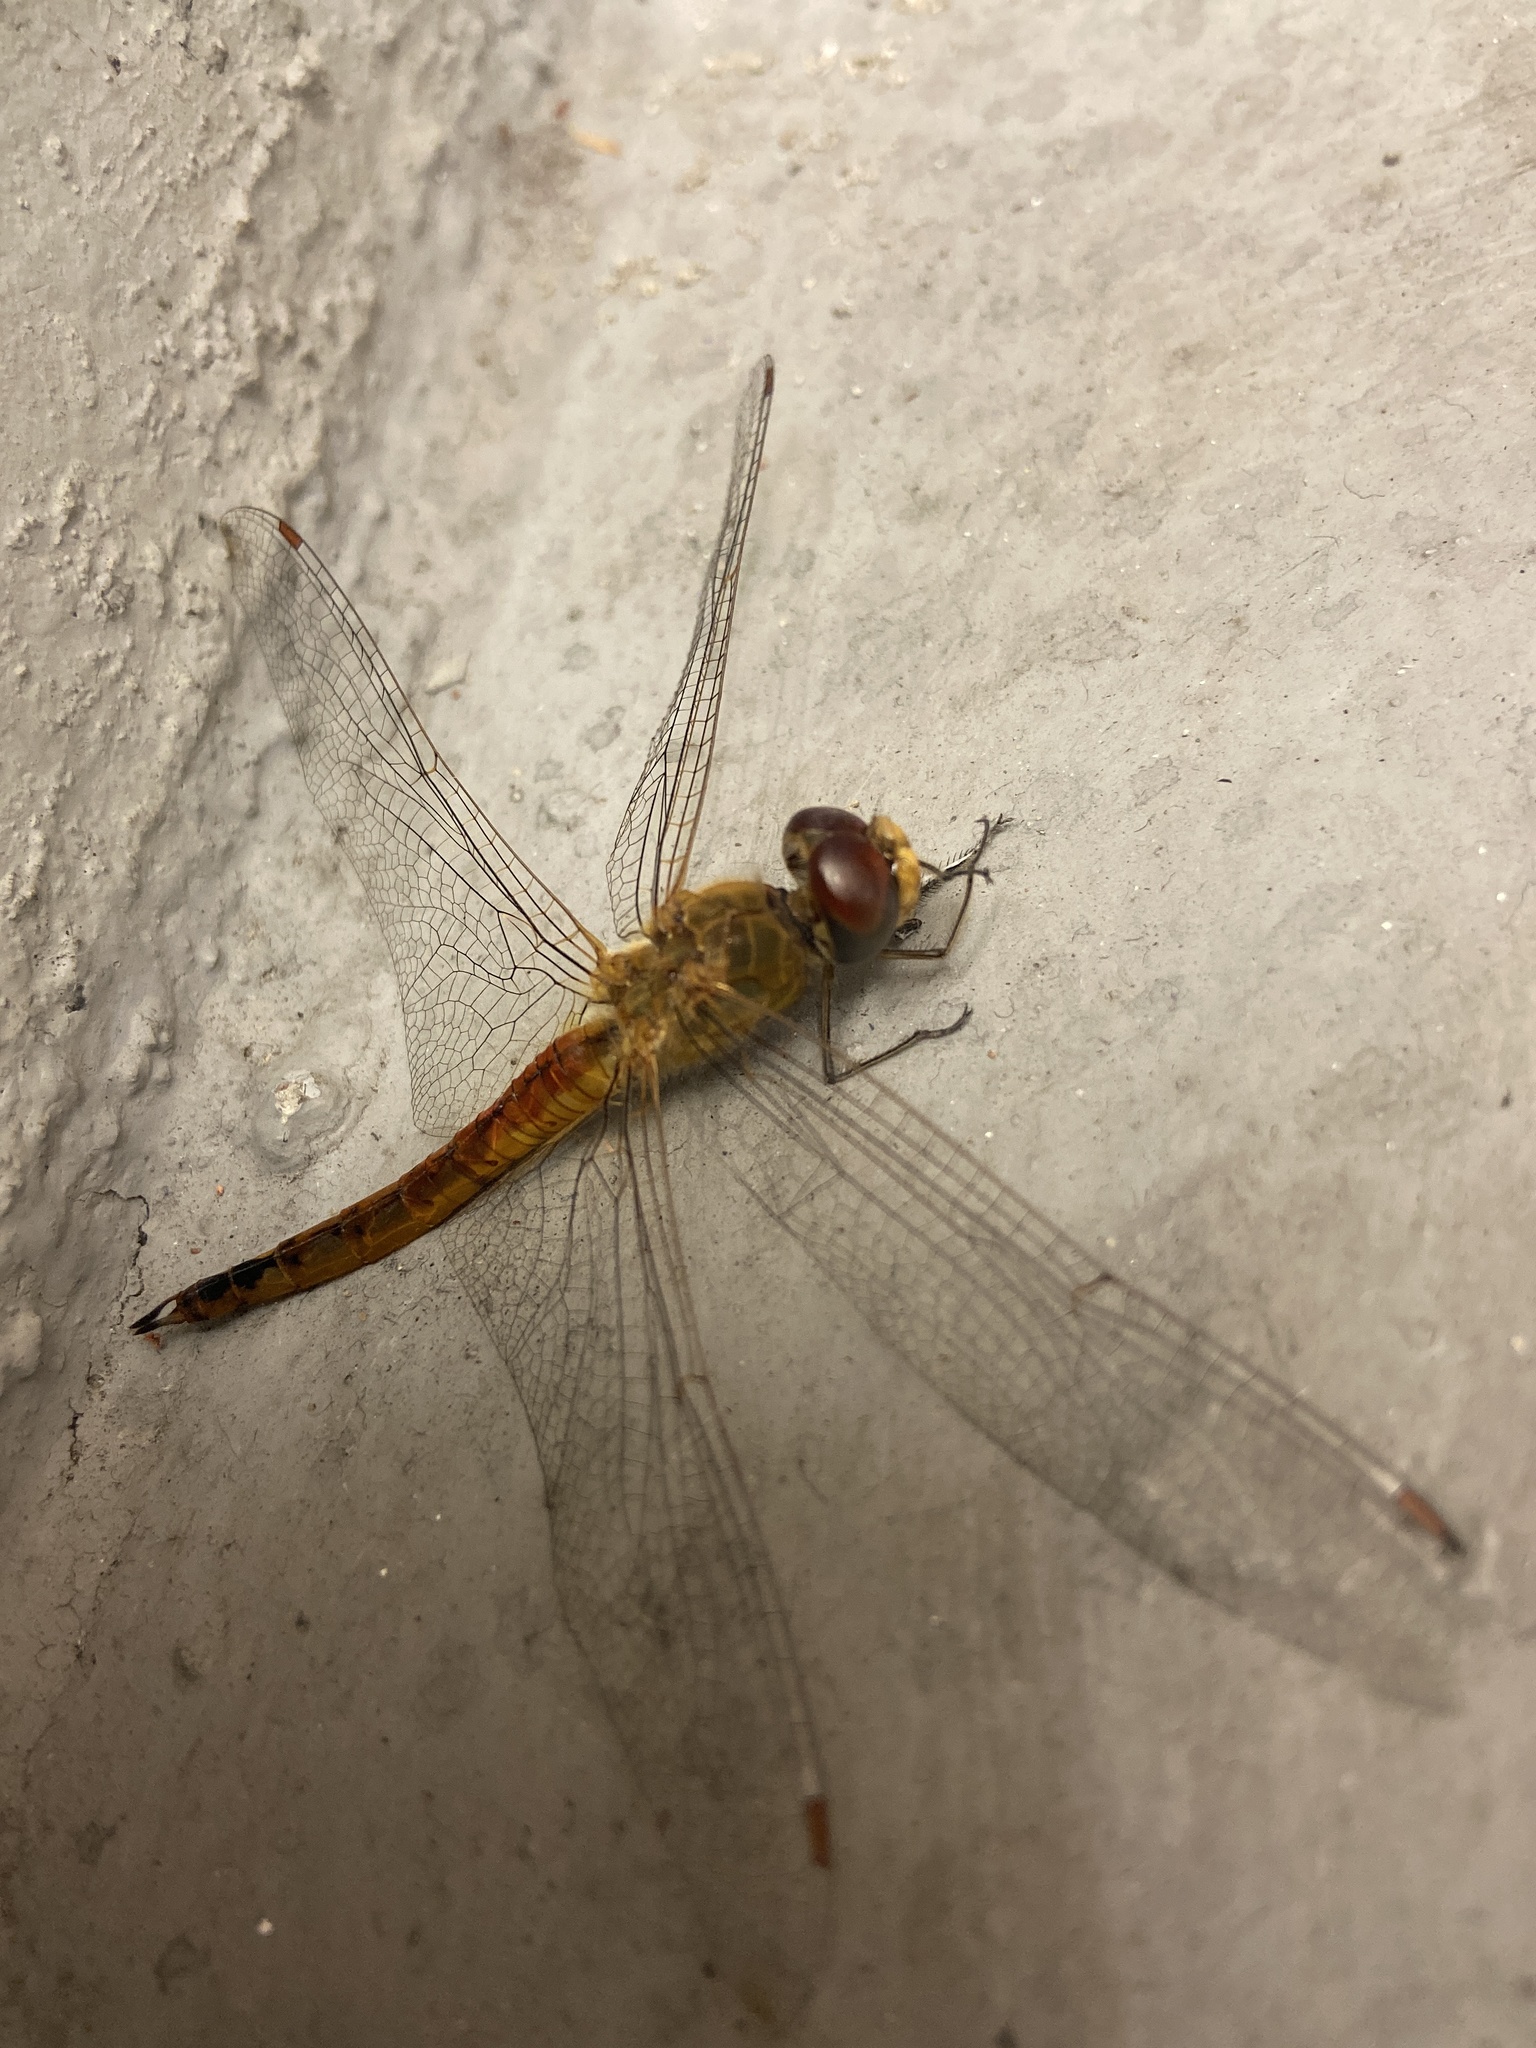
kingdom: Animalia
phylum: Arthropoda
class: Insecta
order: Odonata
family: Libellulidae
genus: Pantala
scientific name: Pantala flavescens
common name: Wandering glider
